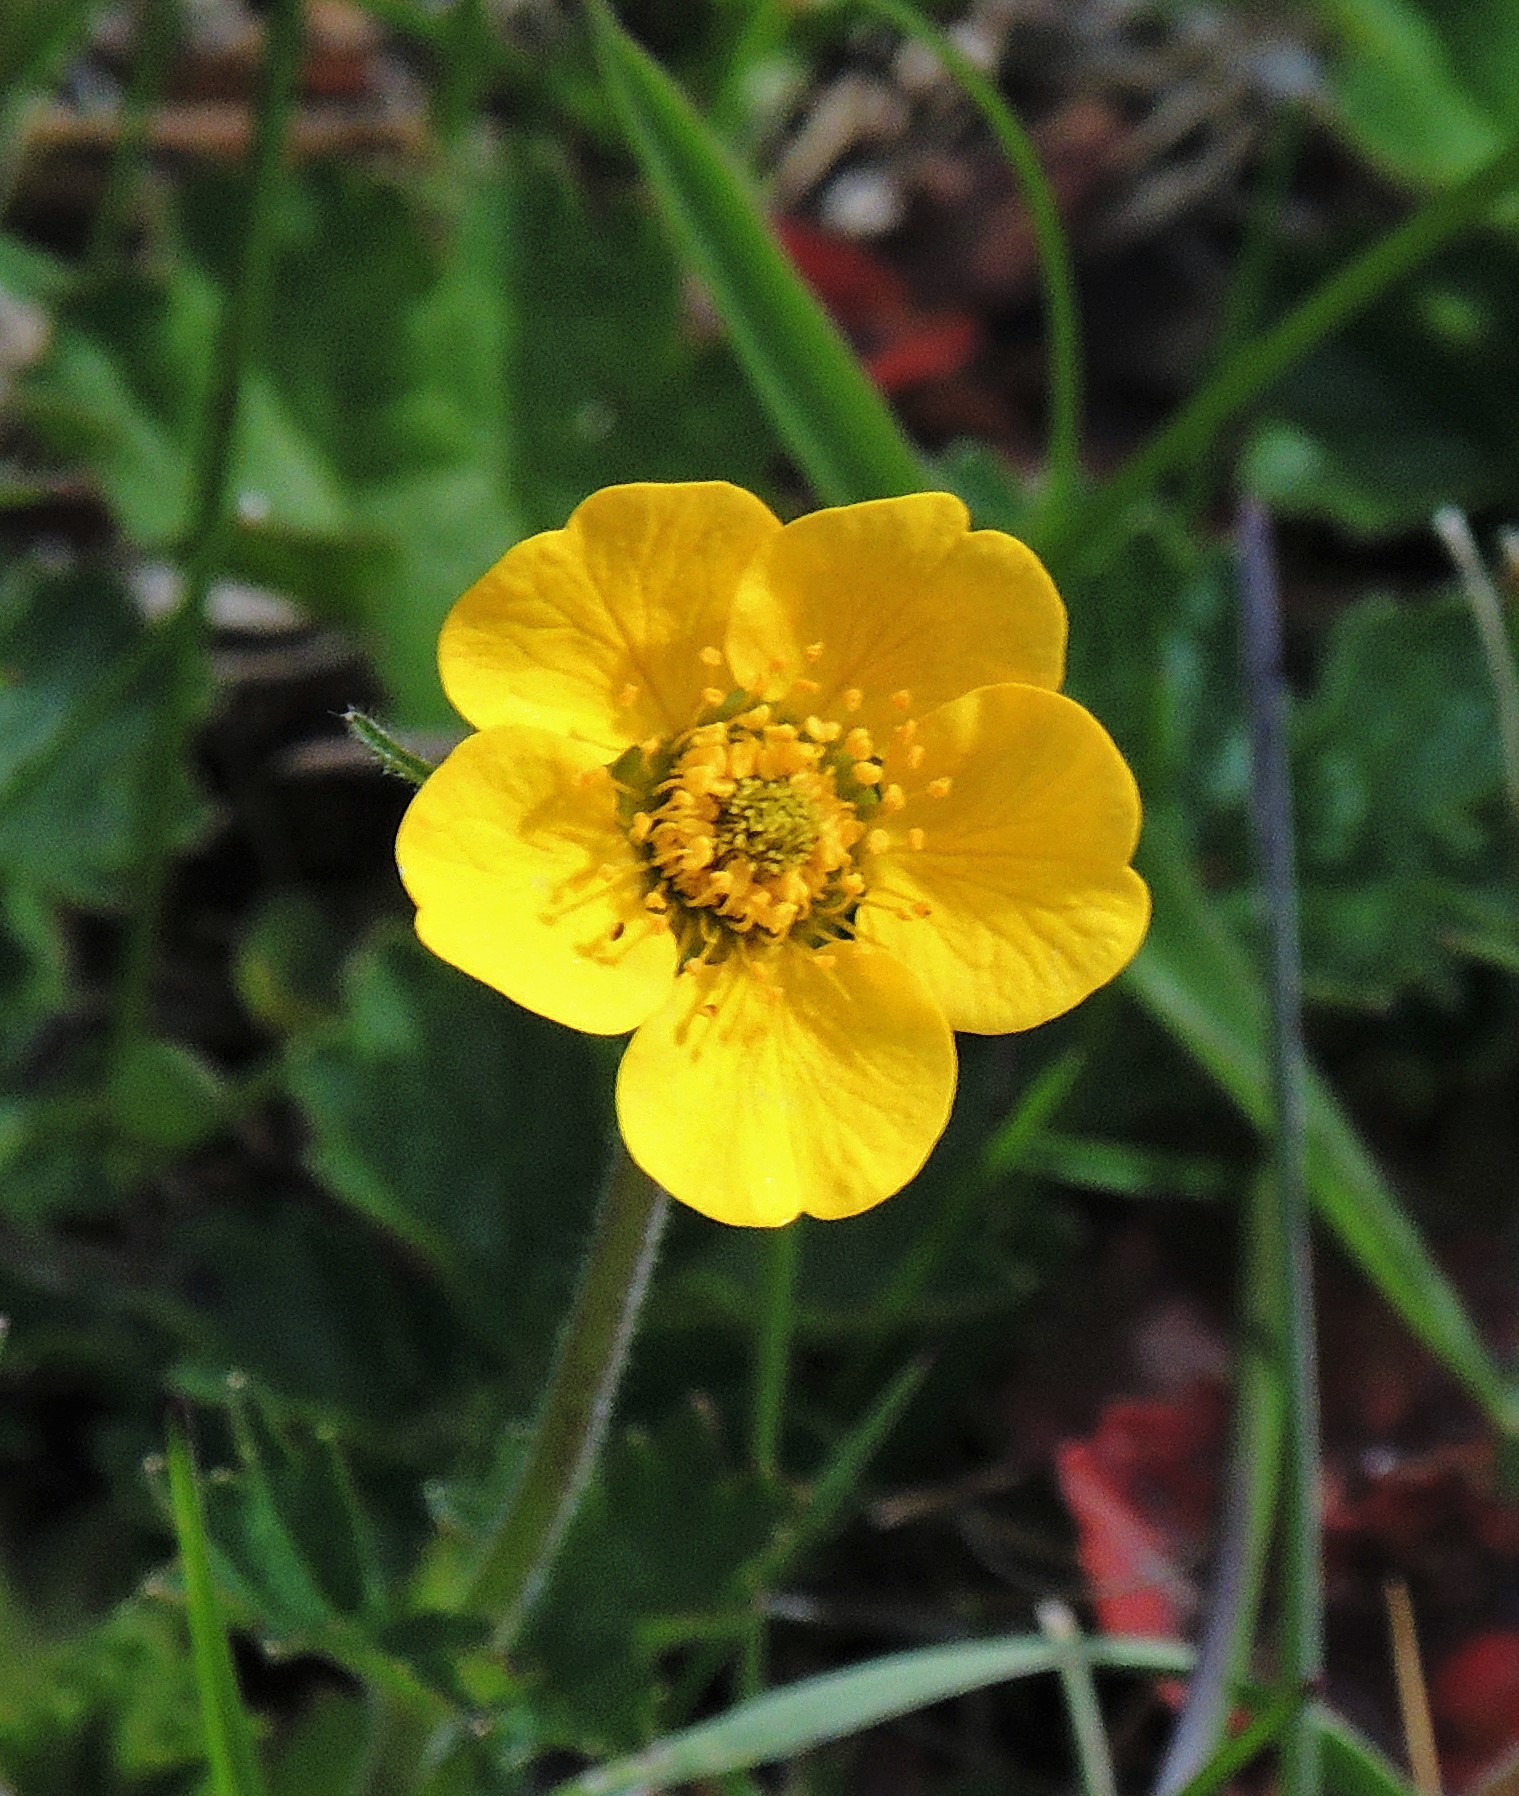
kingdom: Plantae
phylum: Tracheophyta
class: Magnoliopsida
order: Rosales
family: Rosaceae
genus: Geum
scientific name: Geum magellanicum
